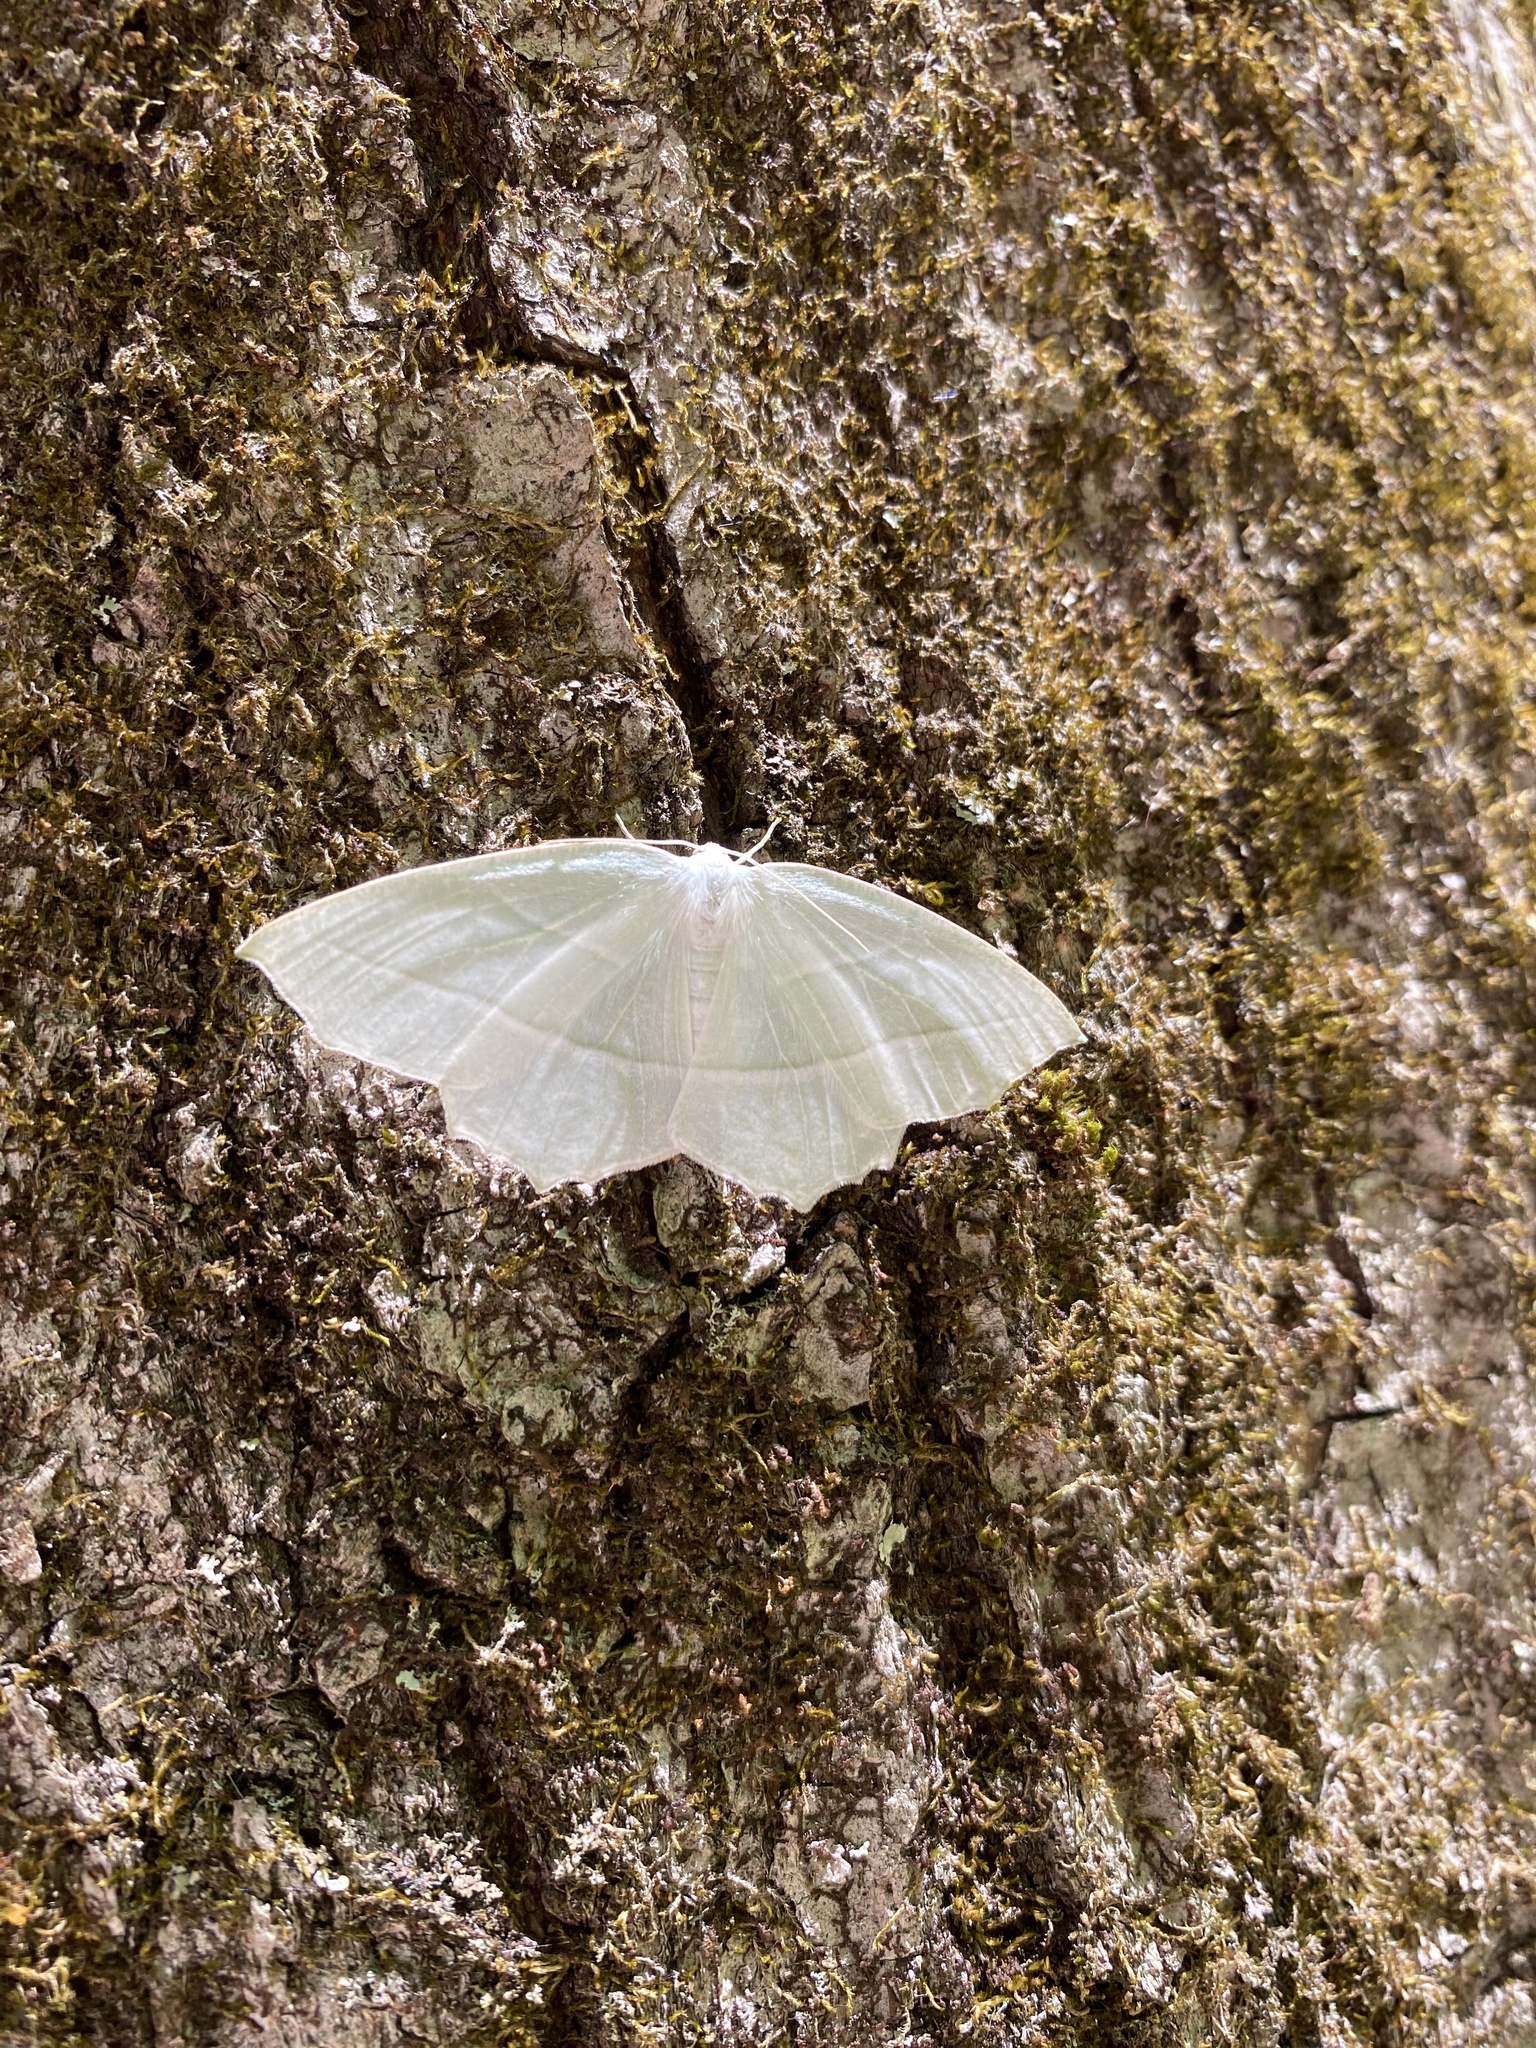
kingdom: Animalia
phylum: Arthropoda
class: Insecta
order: Lepidoptera
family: Geometridae
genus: Campaea
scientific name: Campaea perlata
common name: Fringed looper
